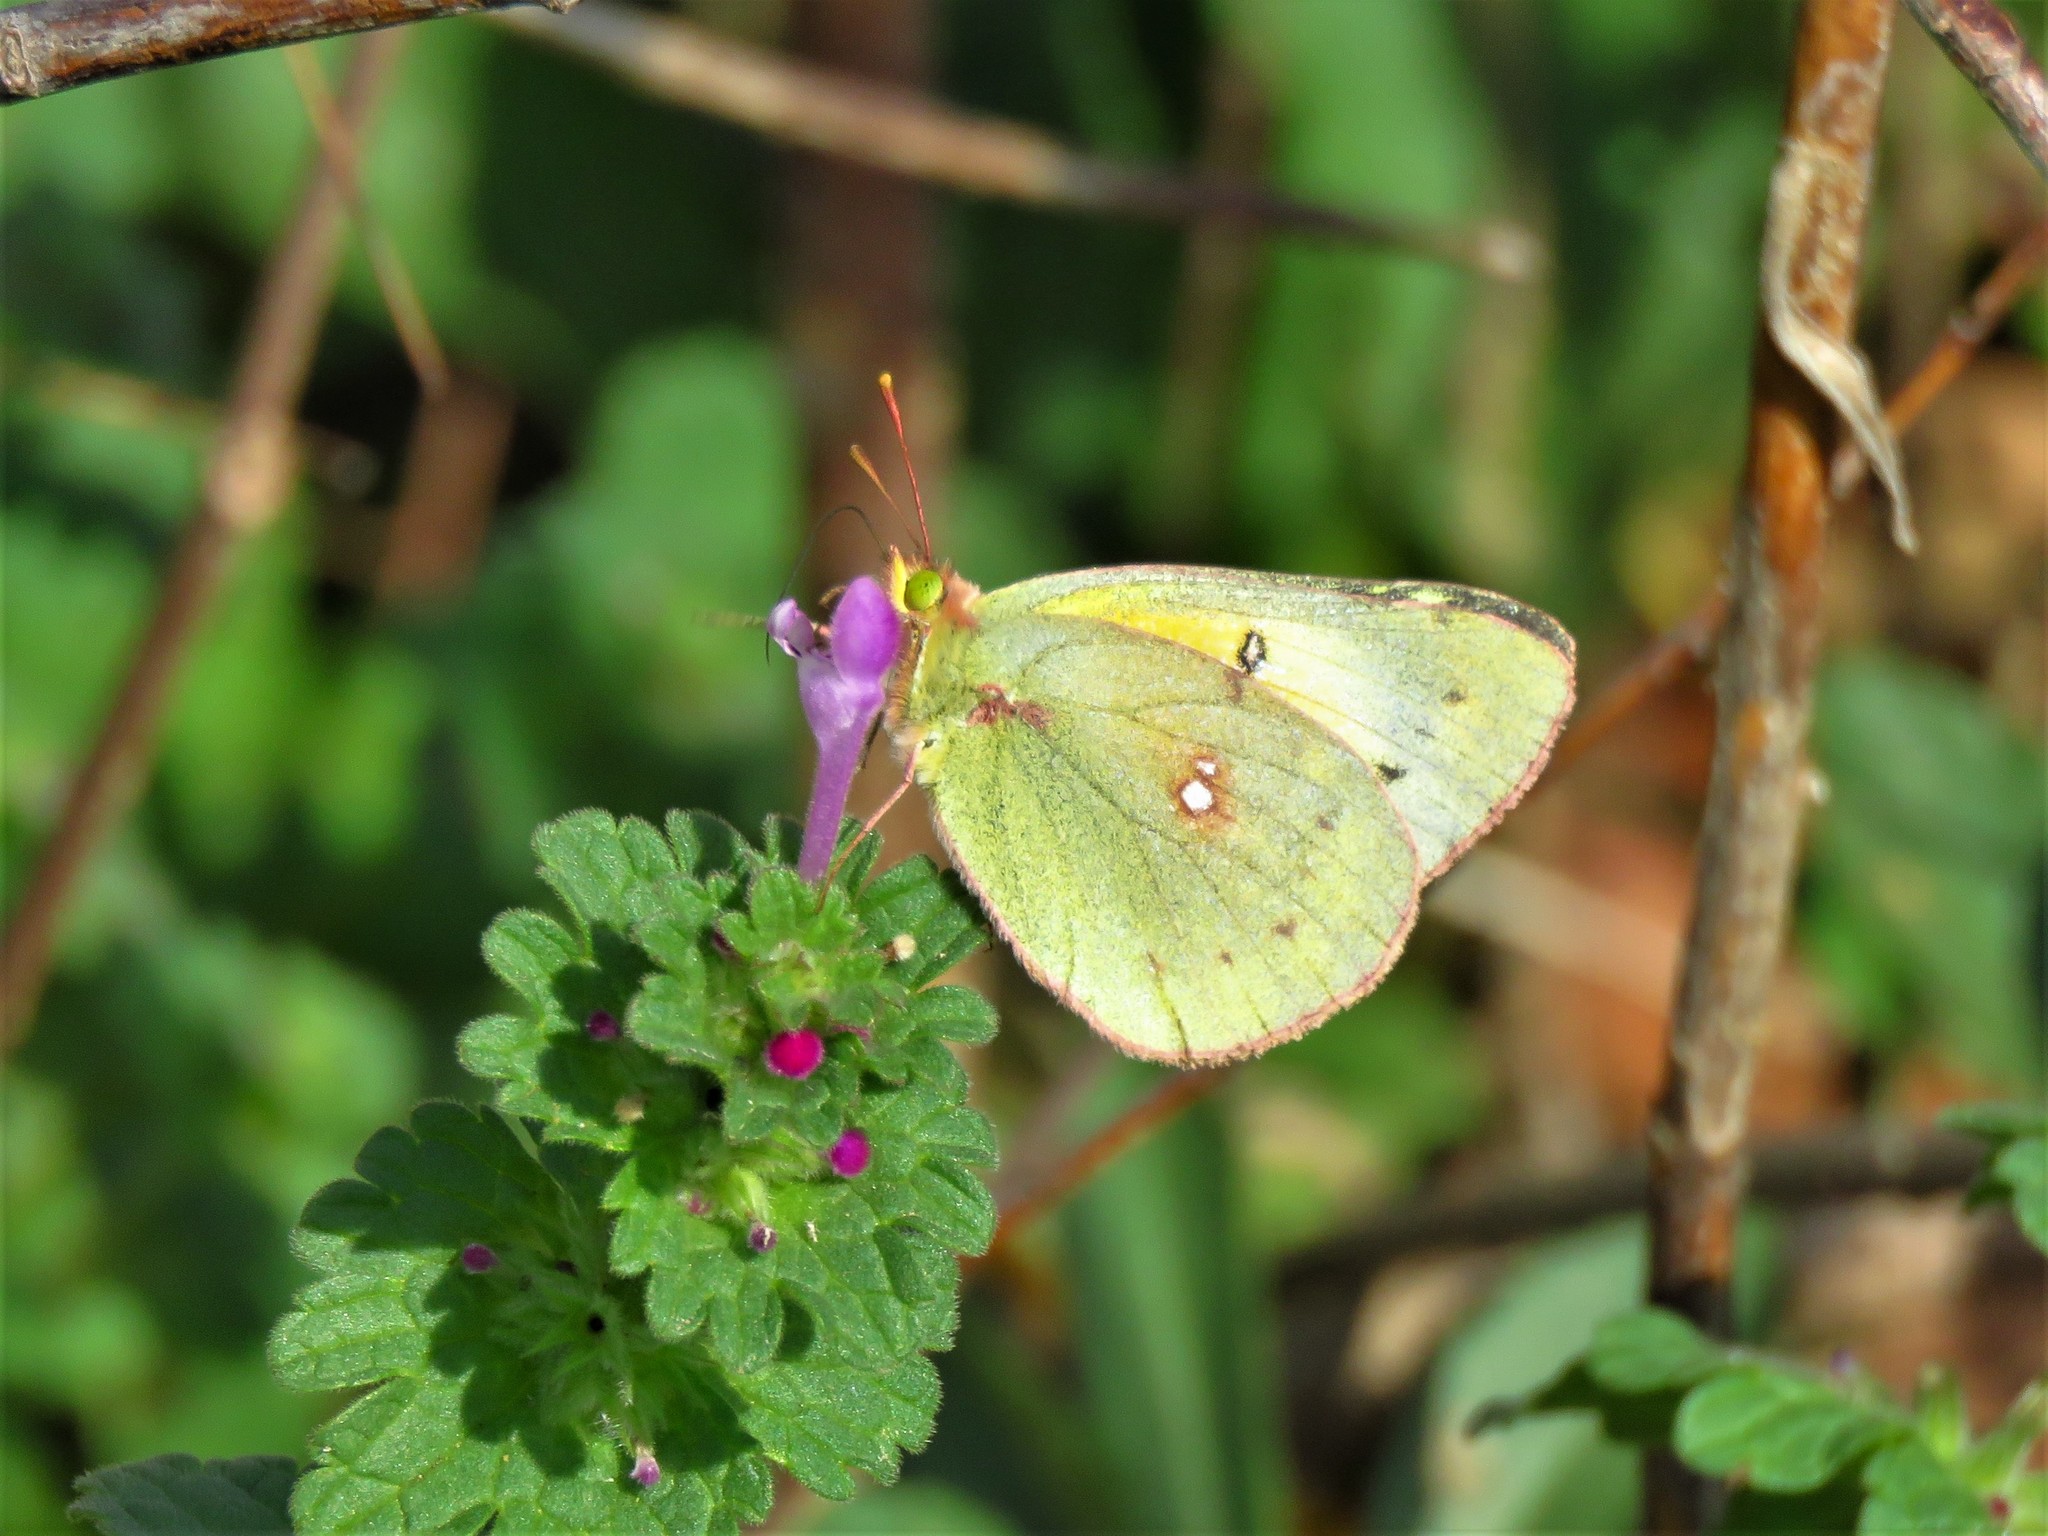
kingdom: Animalia
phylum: Arthropoda
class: Insecta
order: Lepidoptera
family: Pieridae
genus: Colias
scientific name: Colias eurytheme
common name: Alfalfa butterfly
